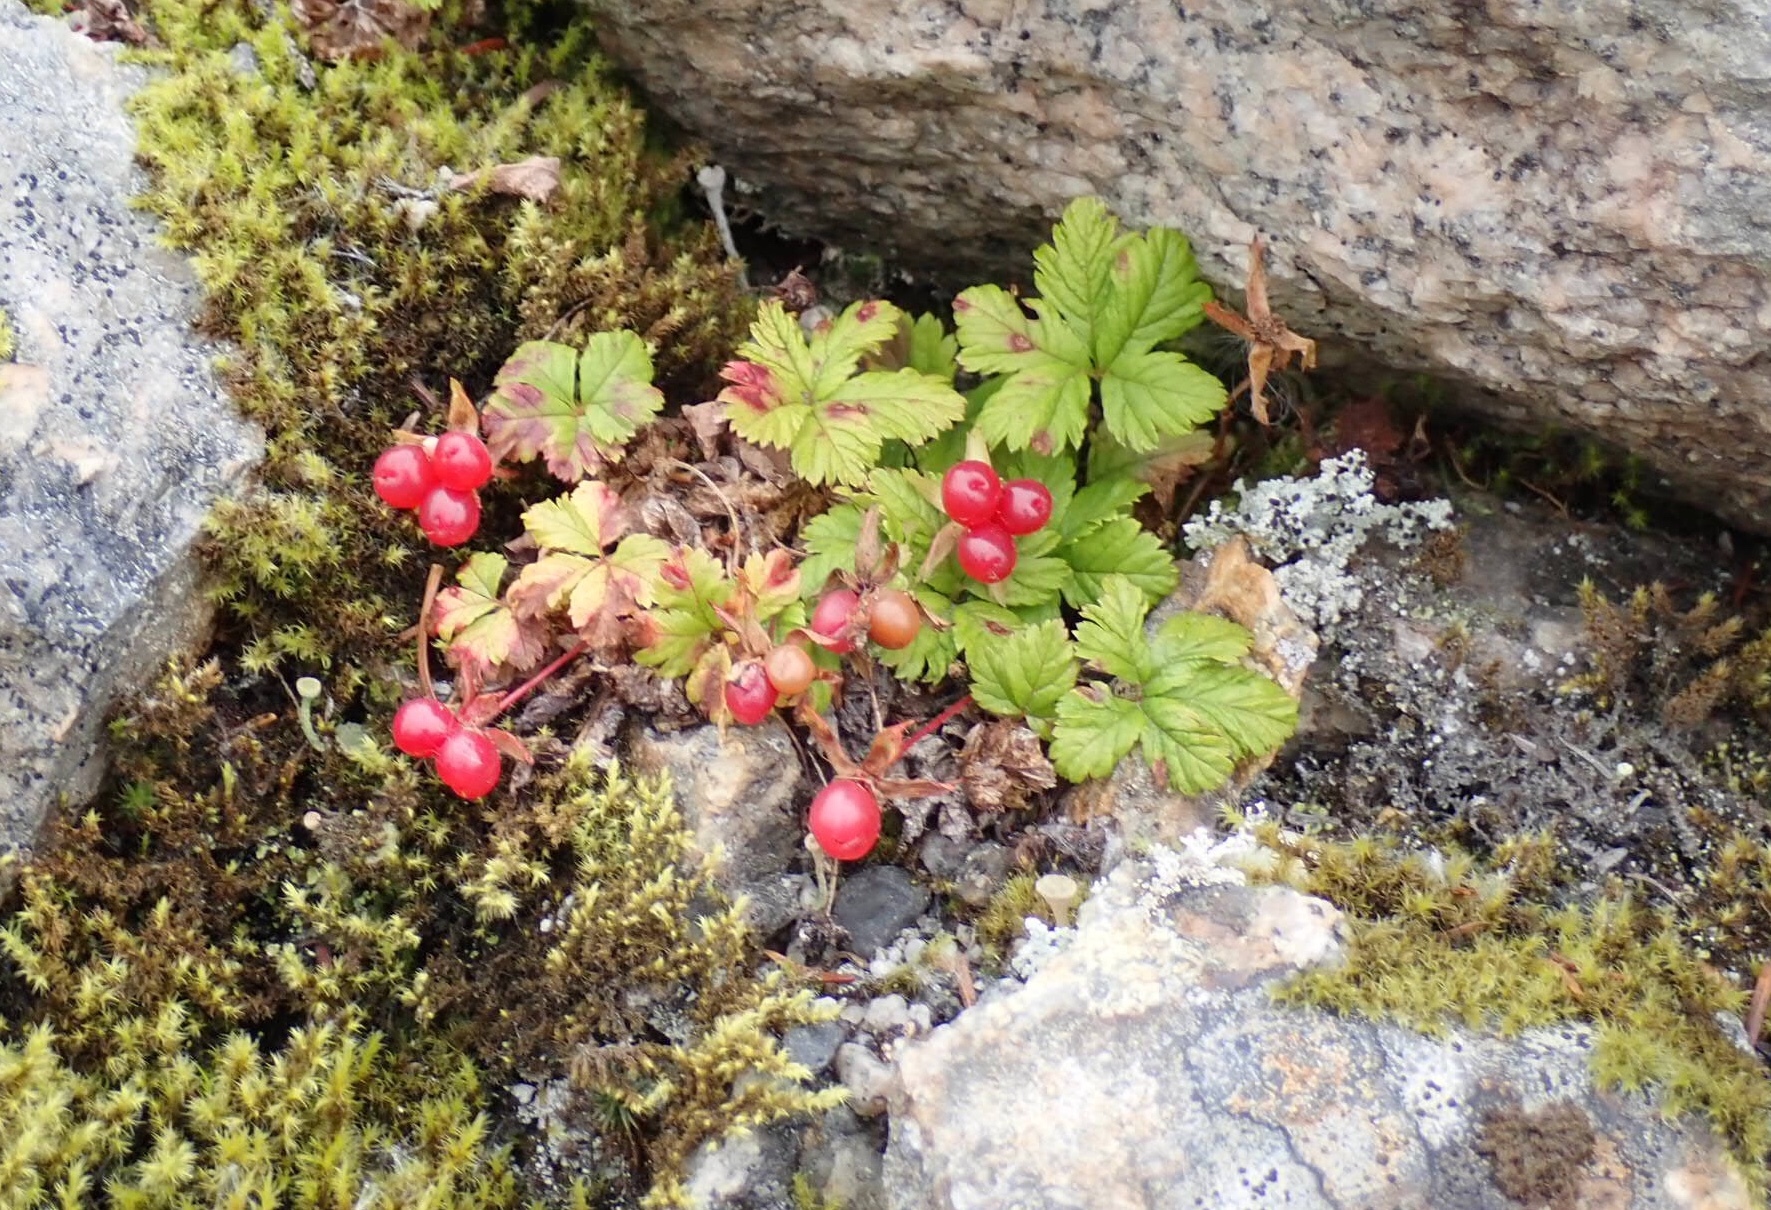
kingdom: Plantae
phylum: Tracheophyta
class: Magnoliopsida
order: Rosales
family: Rosaceae
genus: Rubus
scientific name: Rubus pedatus
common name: Creeping raspberry
